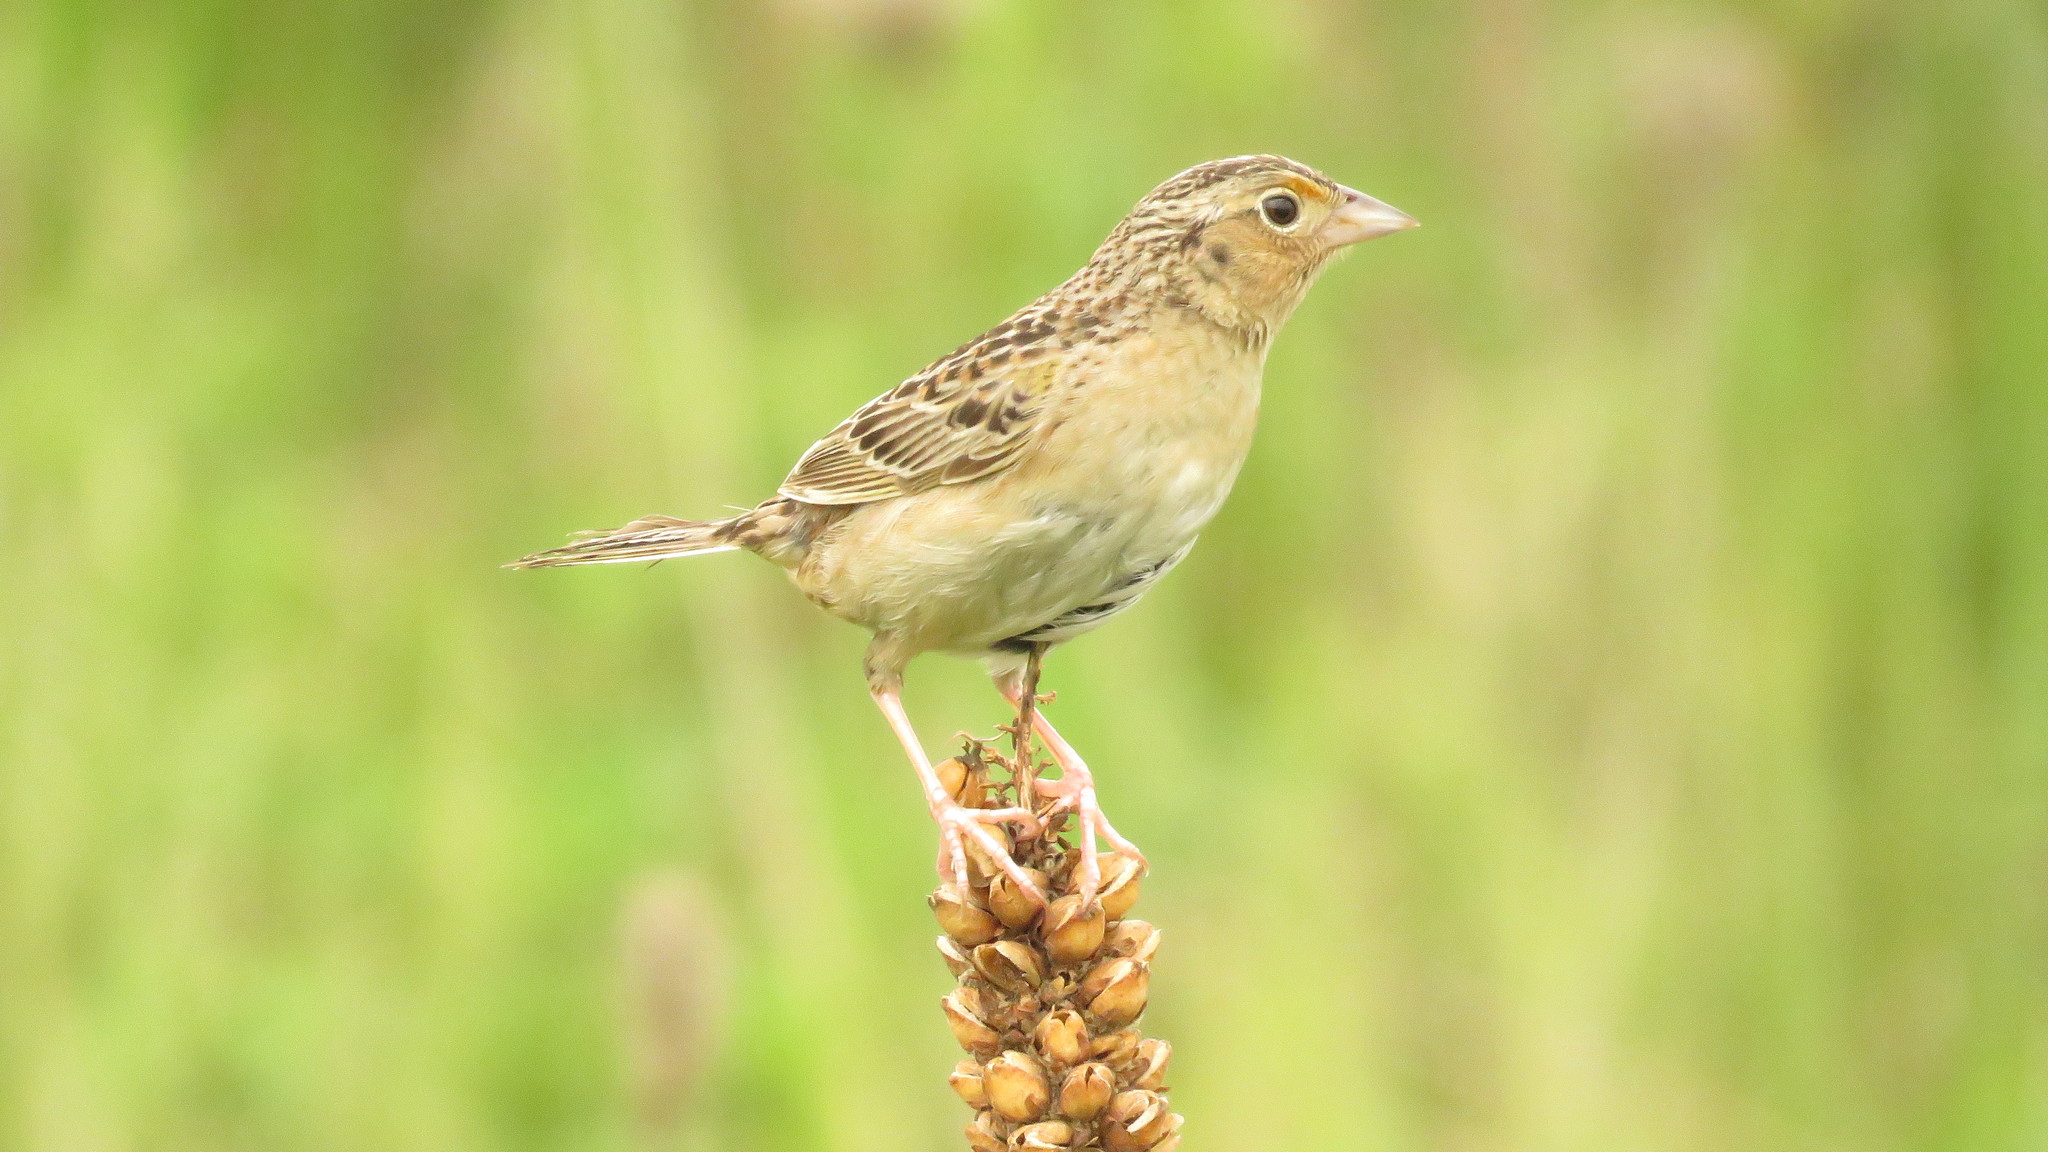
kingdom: Animalia
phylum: Chordata
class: Aves
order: Passeriformes
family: Passerellidae
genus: Ammodramus
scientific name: Ammodramus savannarum
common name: Grasshopper sparrow
